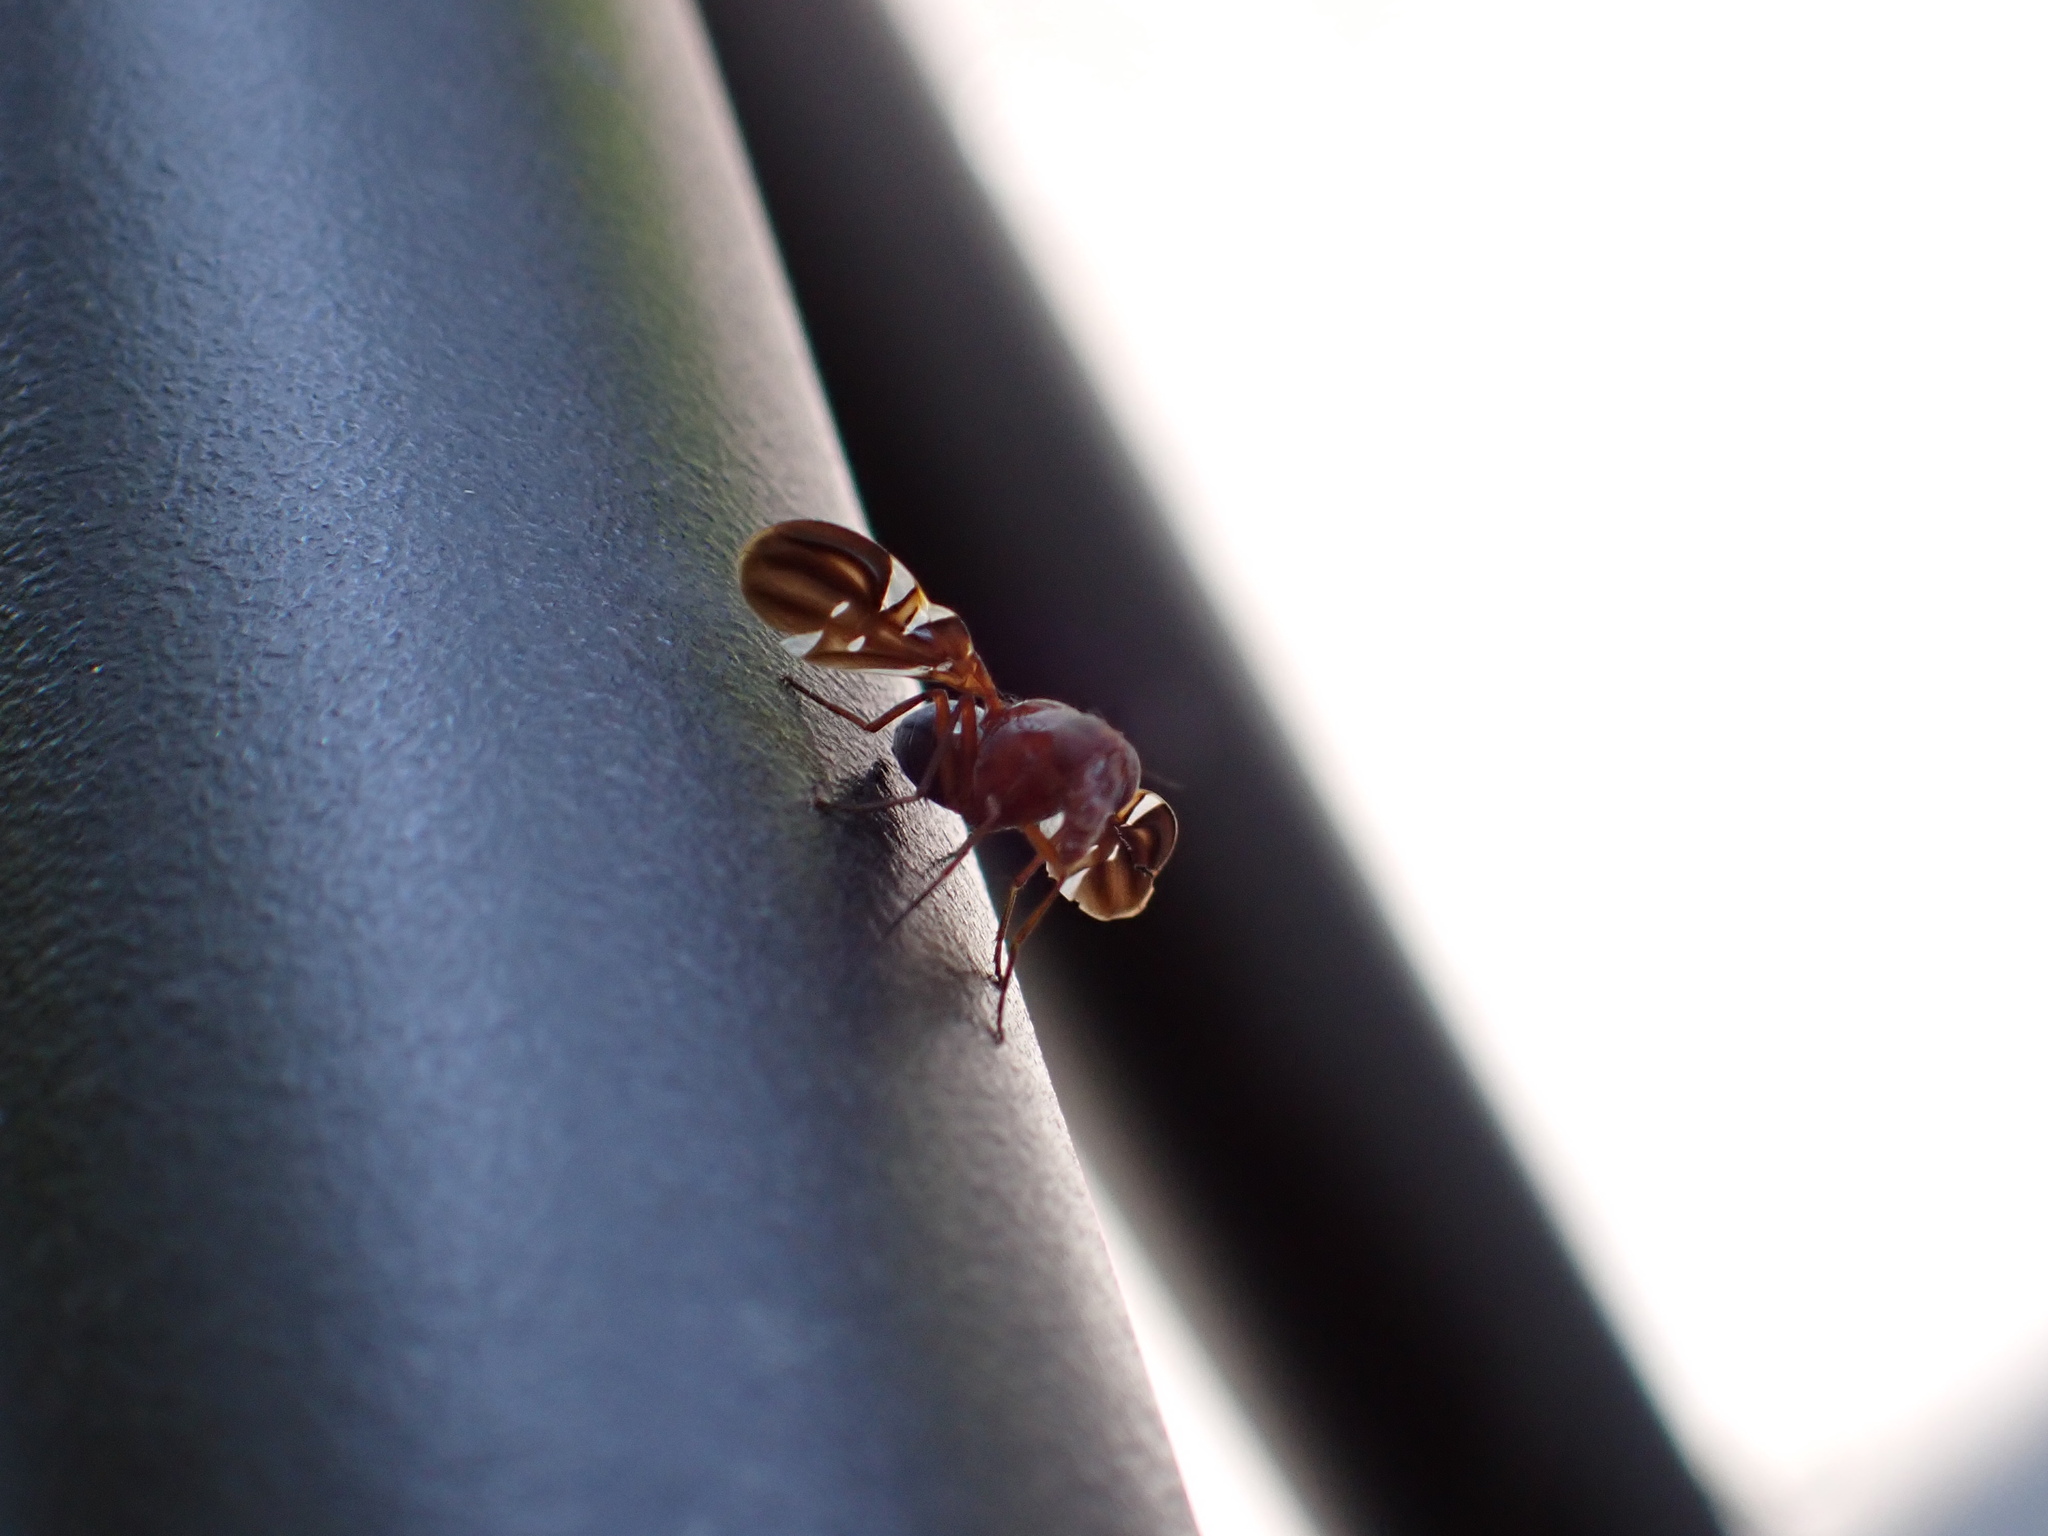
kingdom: Animalia
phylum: Arthropoda
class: Insecta
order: Diptera
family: Ulidiidae
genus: Delphinia
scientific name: Delphinia picta
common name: Common picture-winged fly
